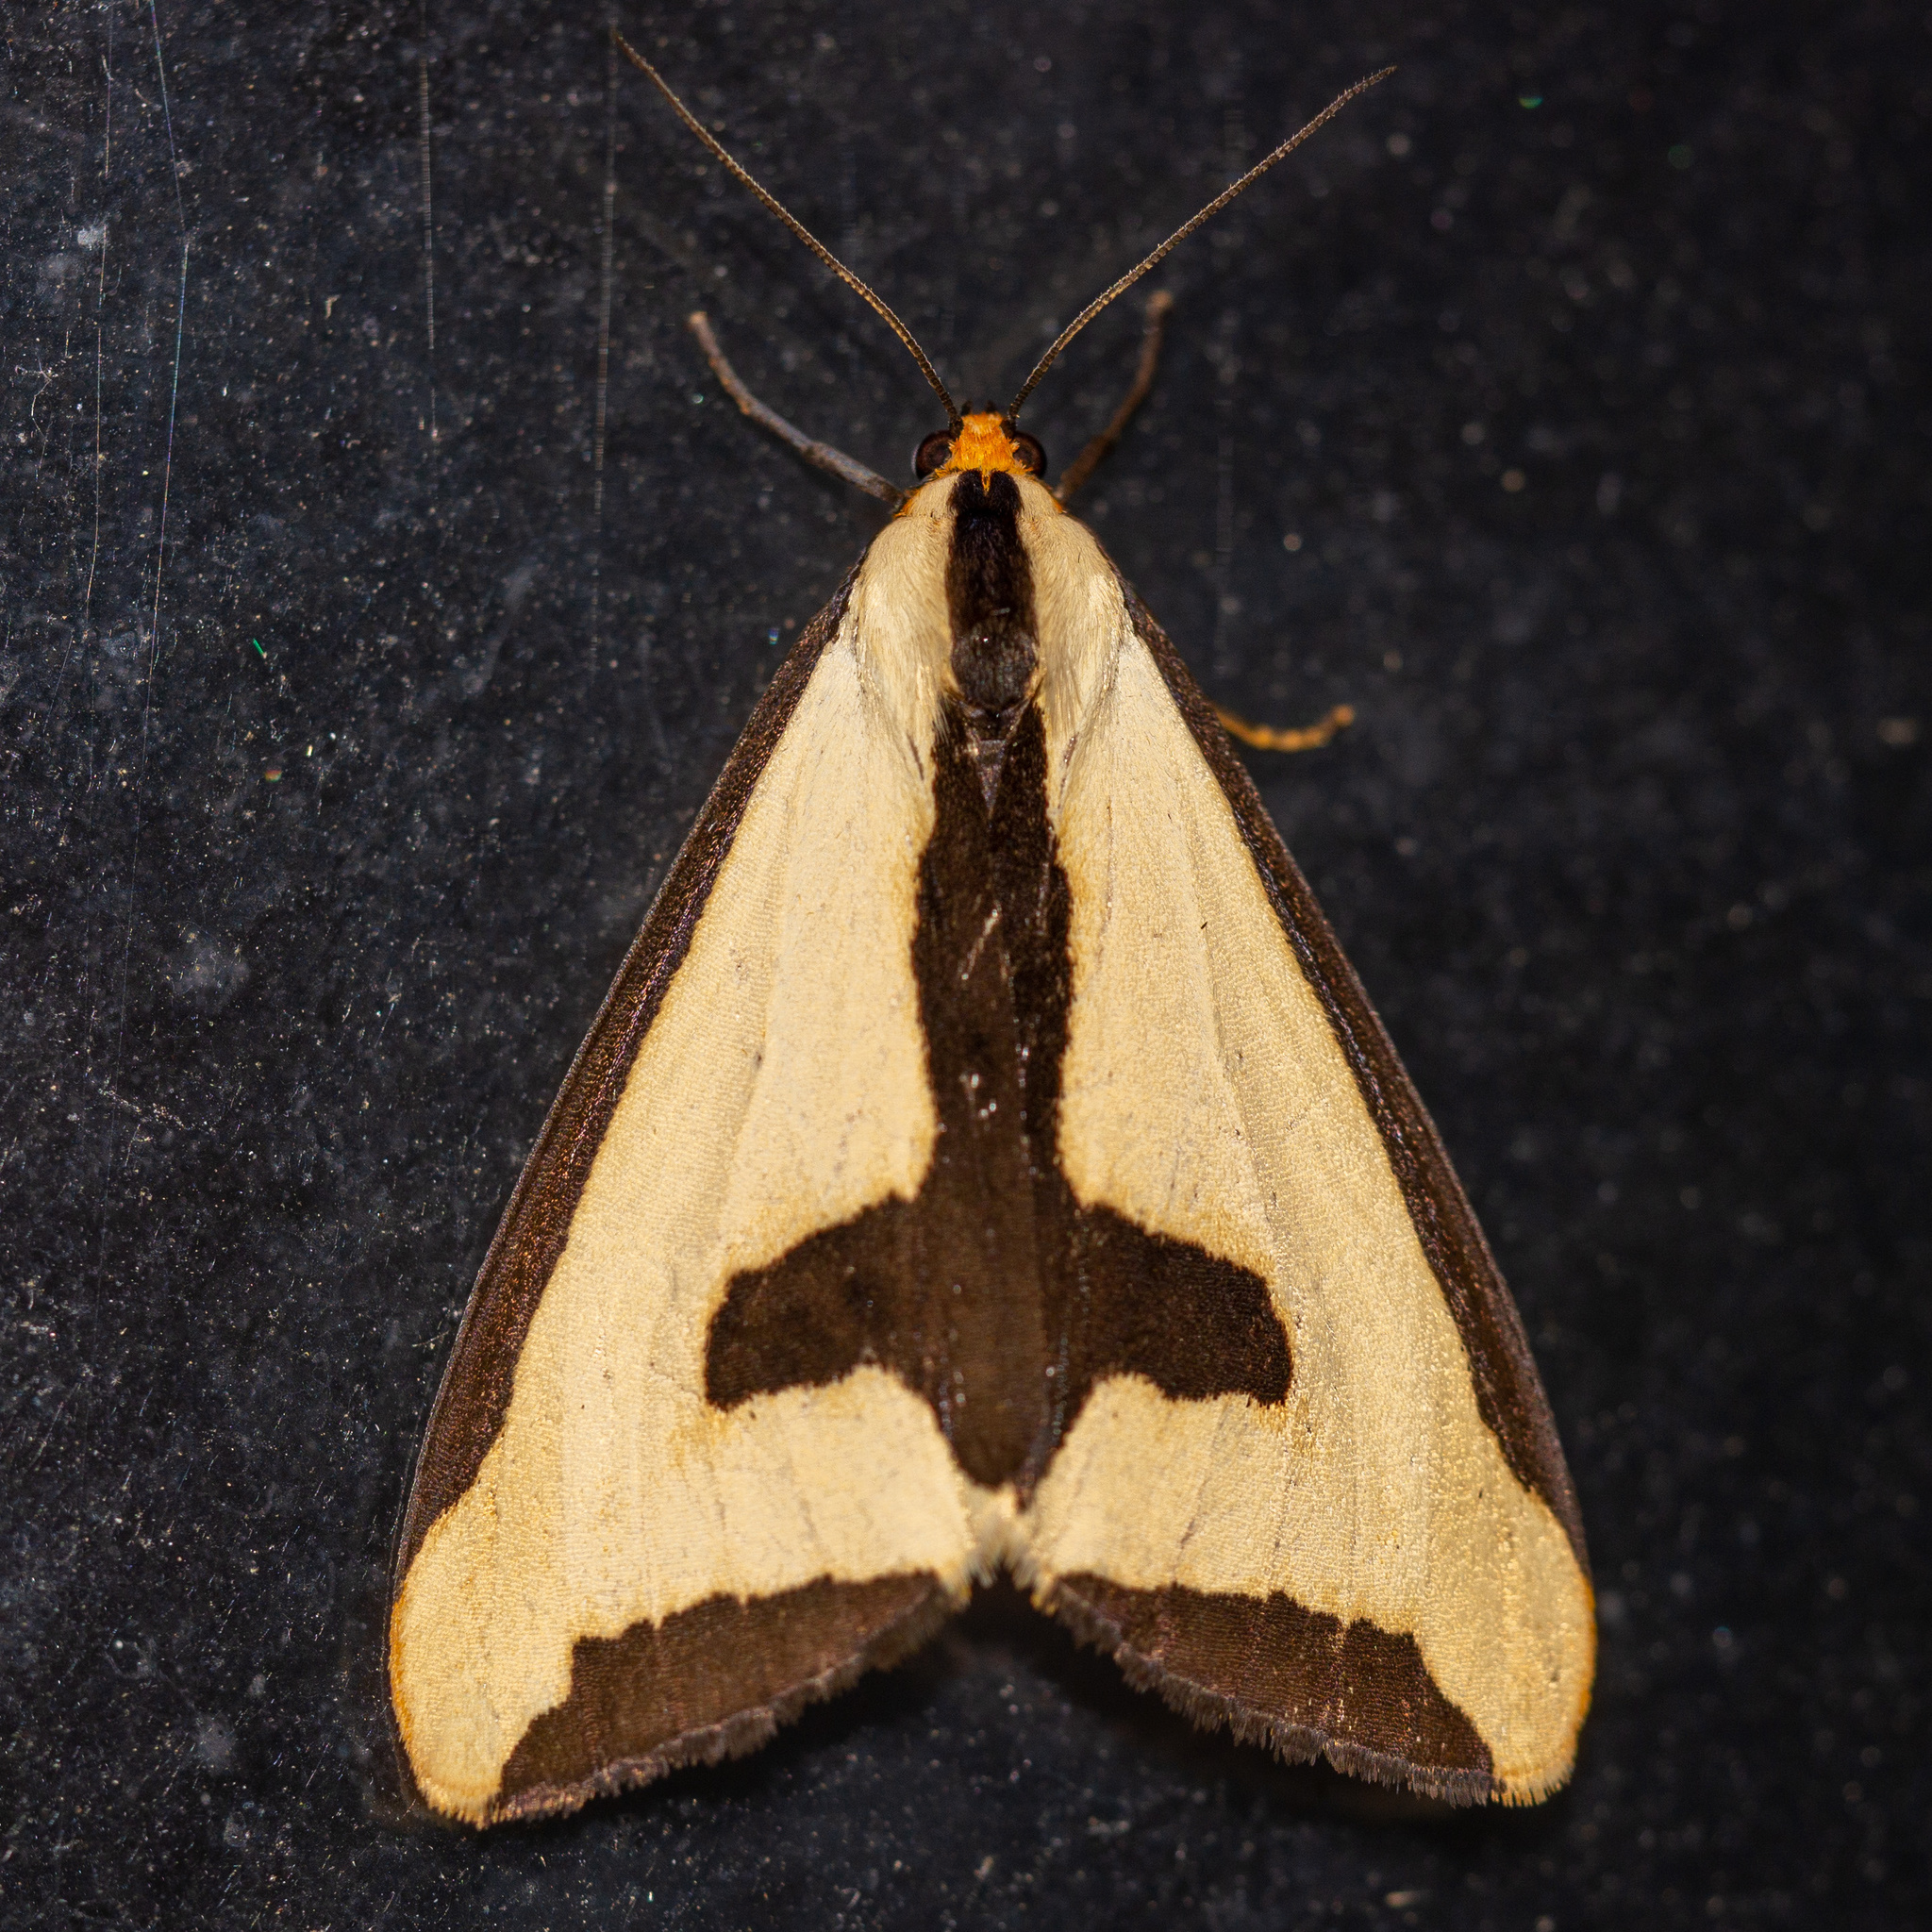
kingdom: Animalia
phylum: Arthropoda
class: Insecta
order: Lepidoptera
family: Erebidae
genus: Haploa
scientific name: Haploa clymene
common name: Clymene moth
